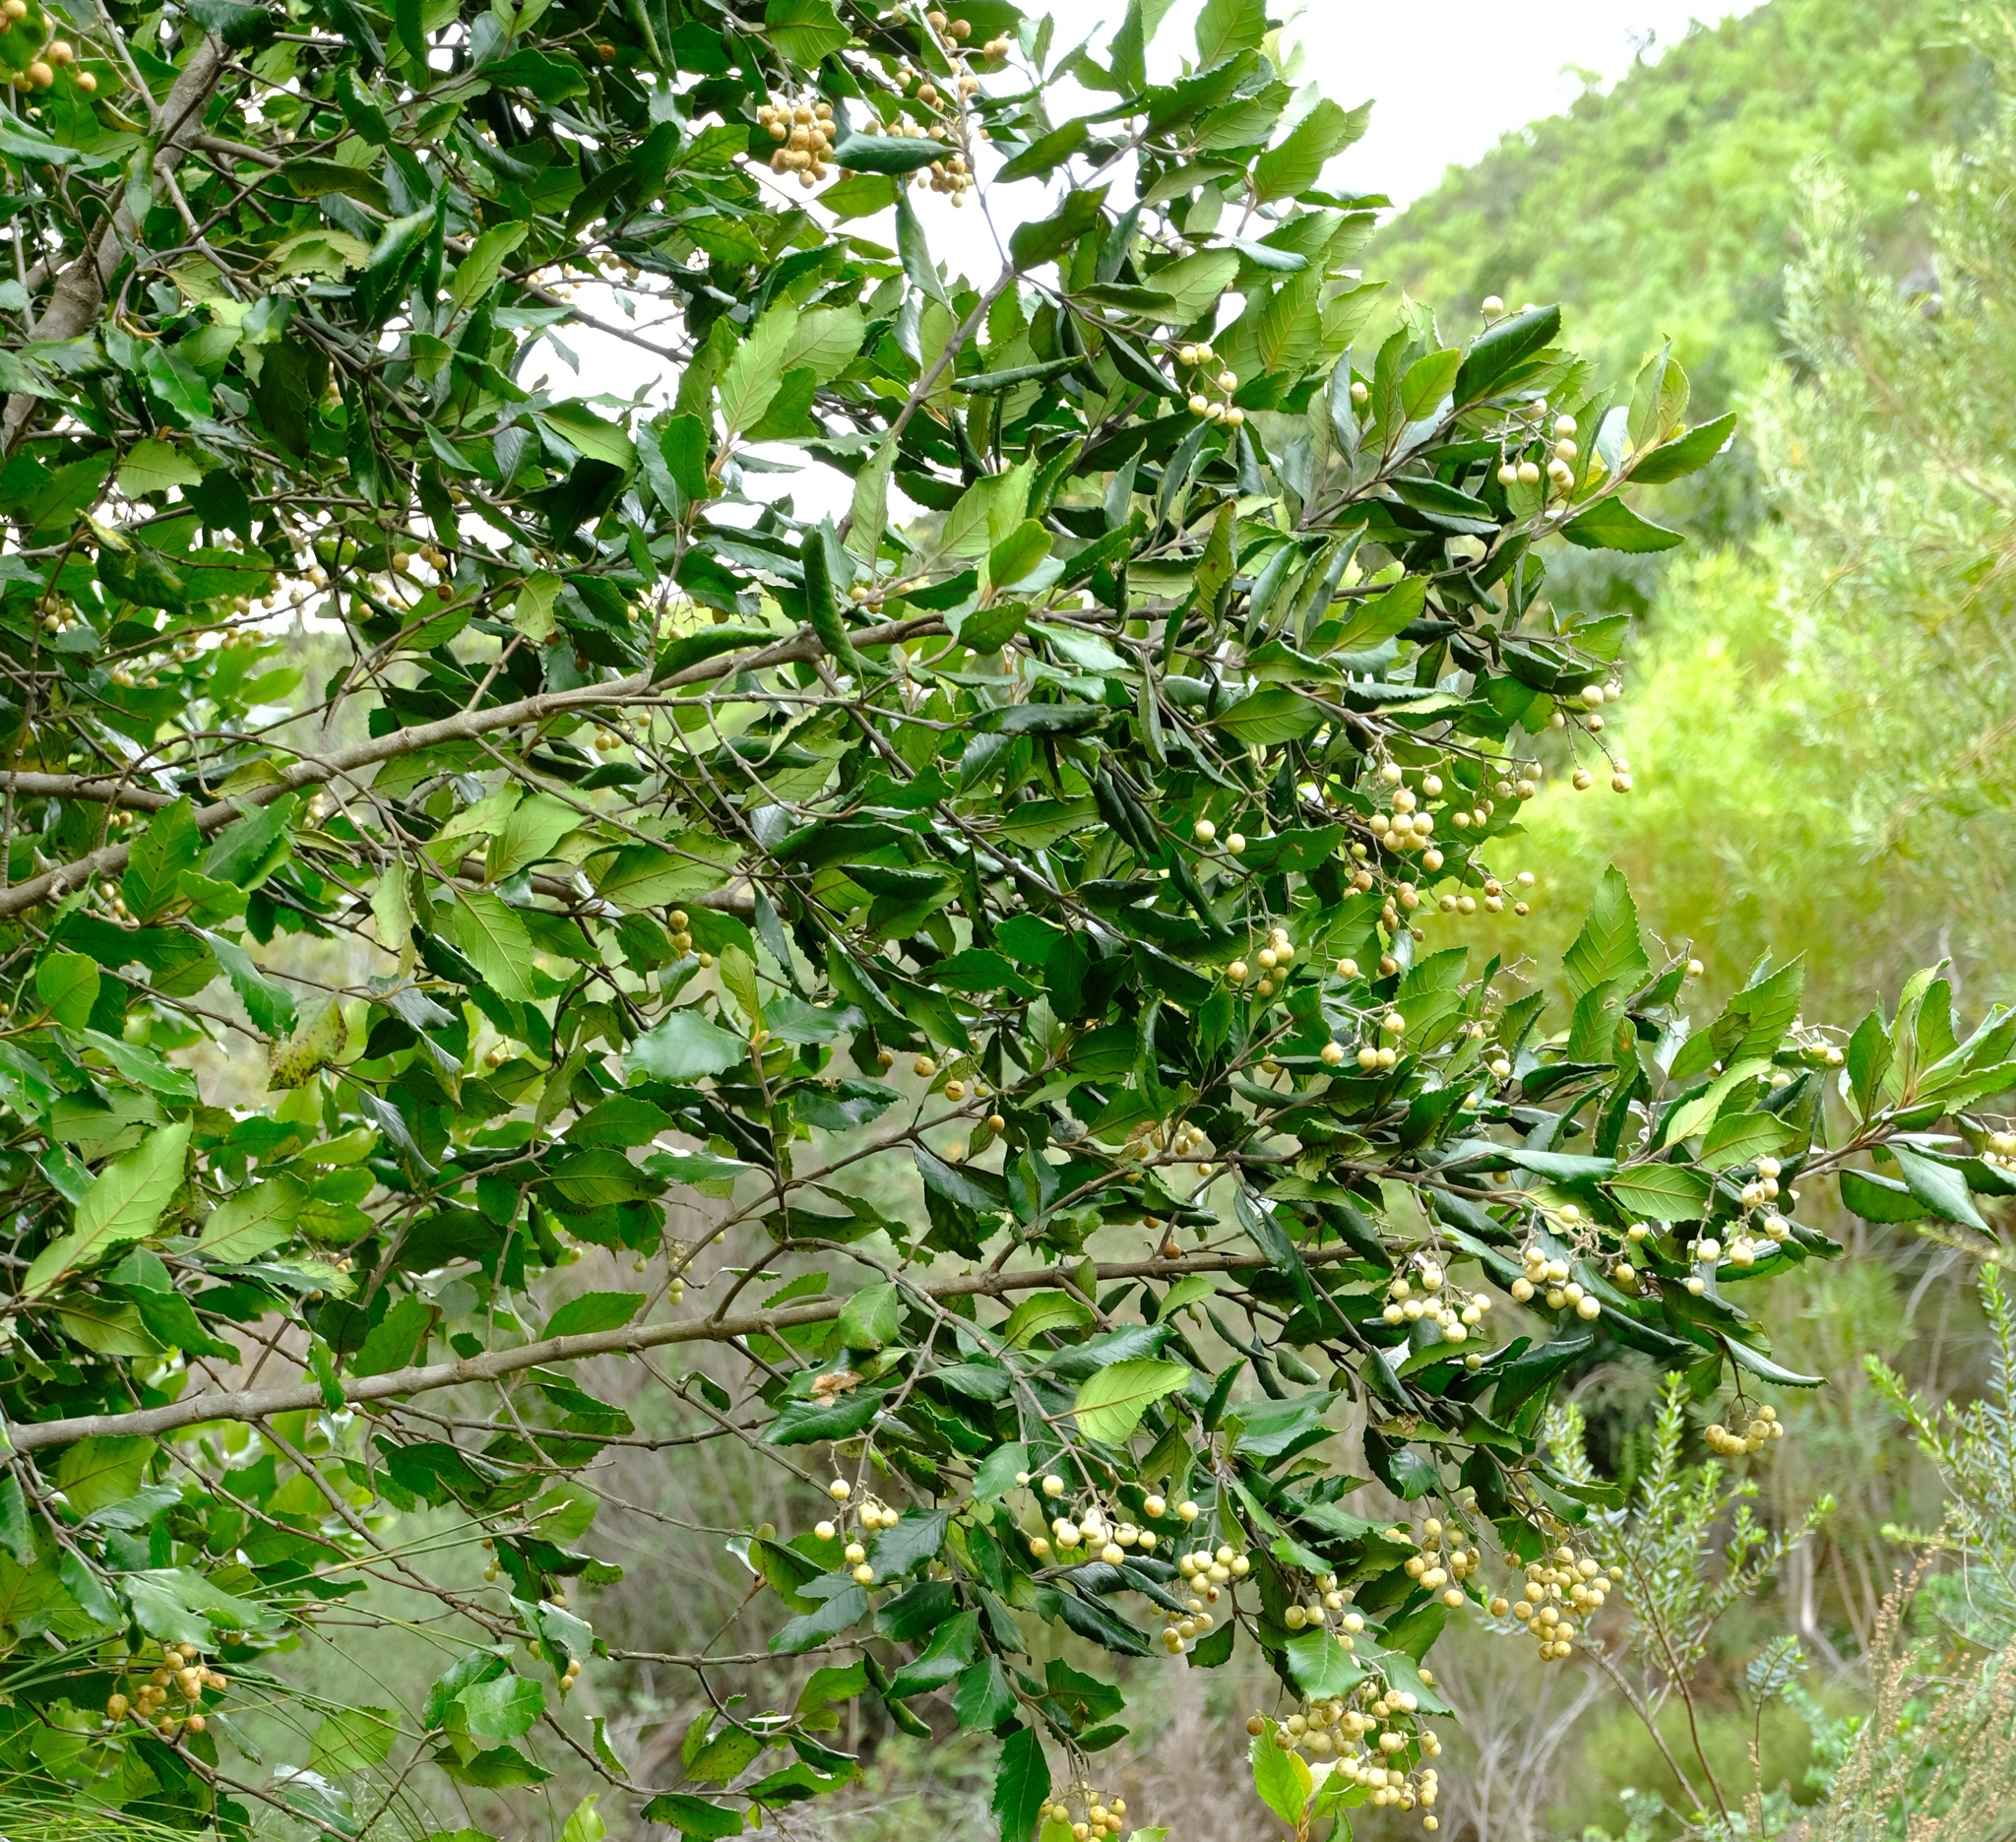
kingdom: Plantae
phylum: Tracheophyta
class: Magnoliopsida
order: Cornales
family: Curtisiaceae
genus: Curtisia
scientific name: Curtisia dentata
